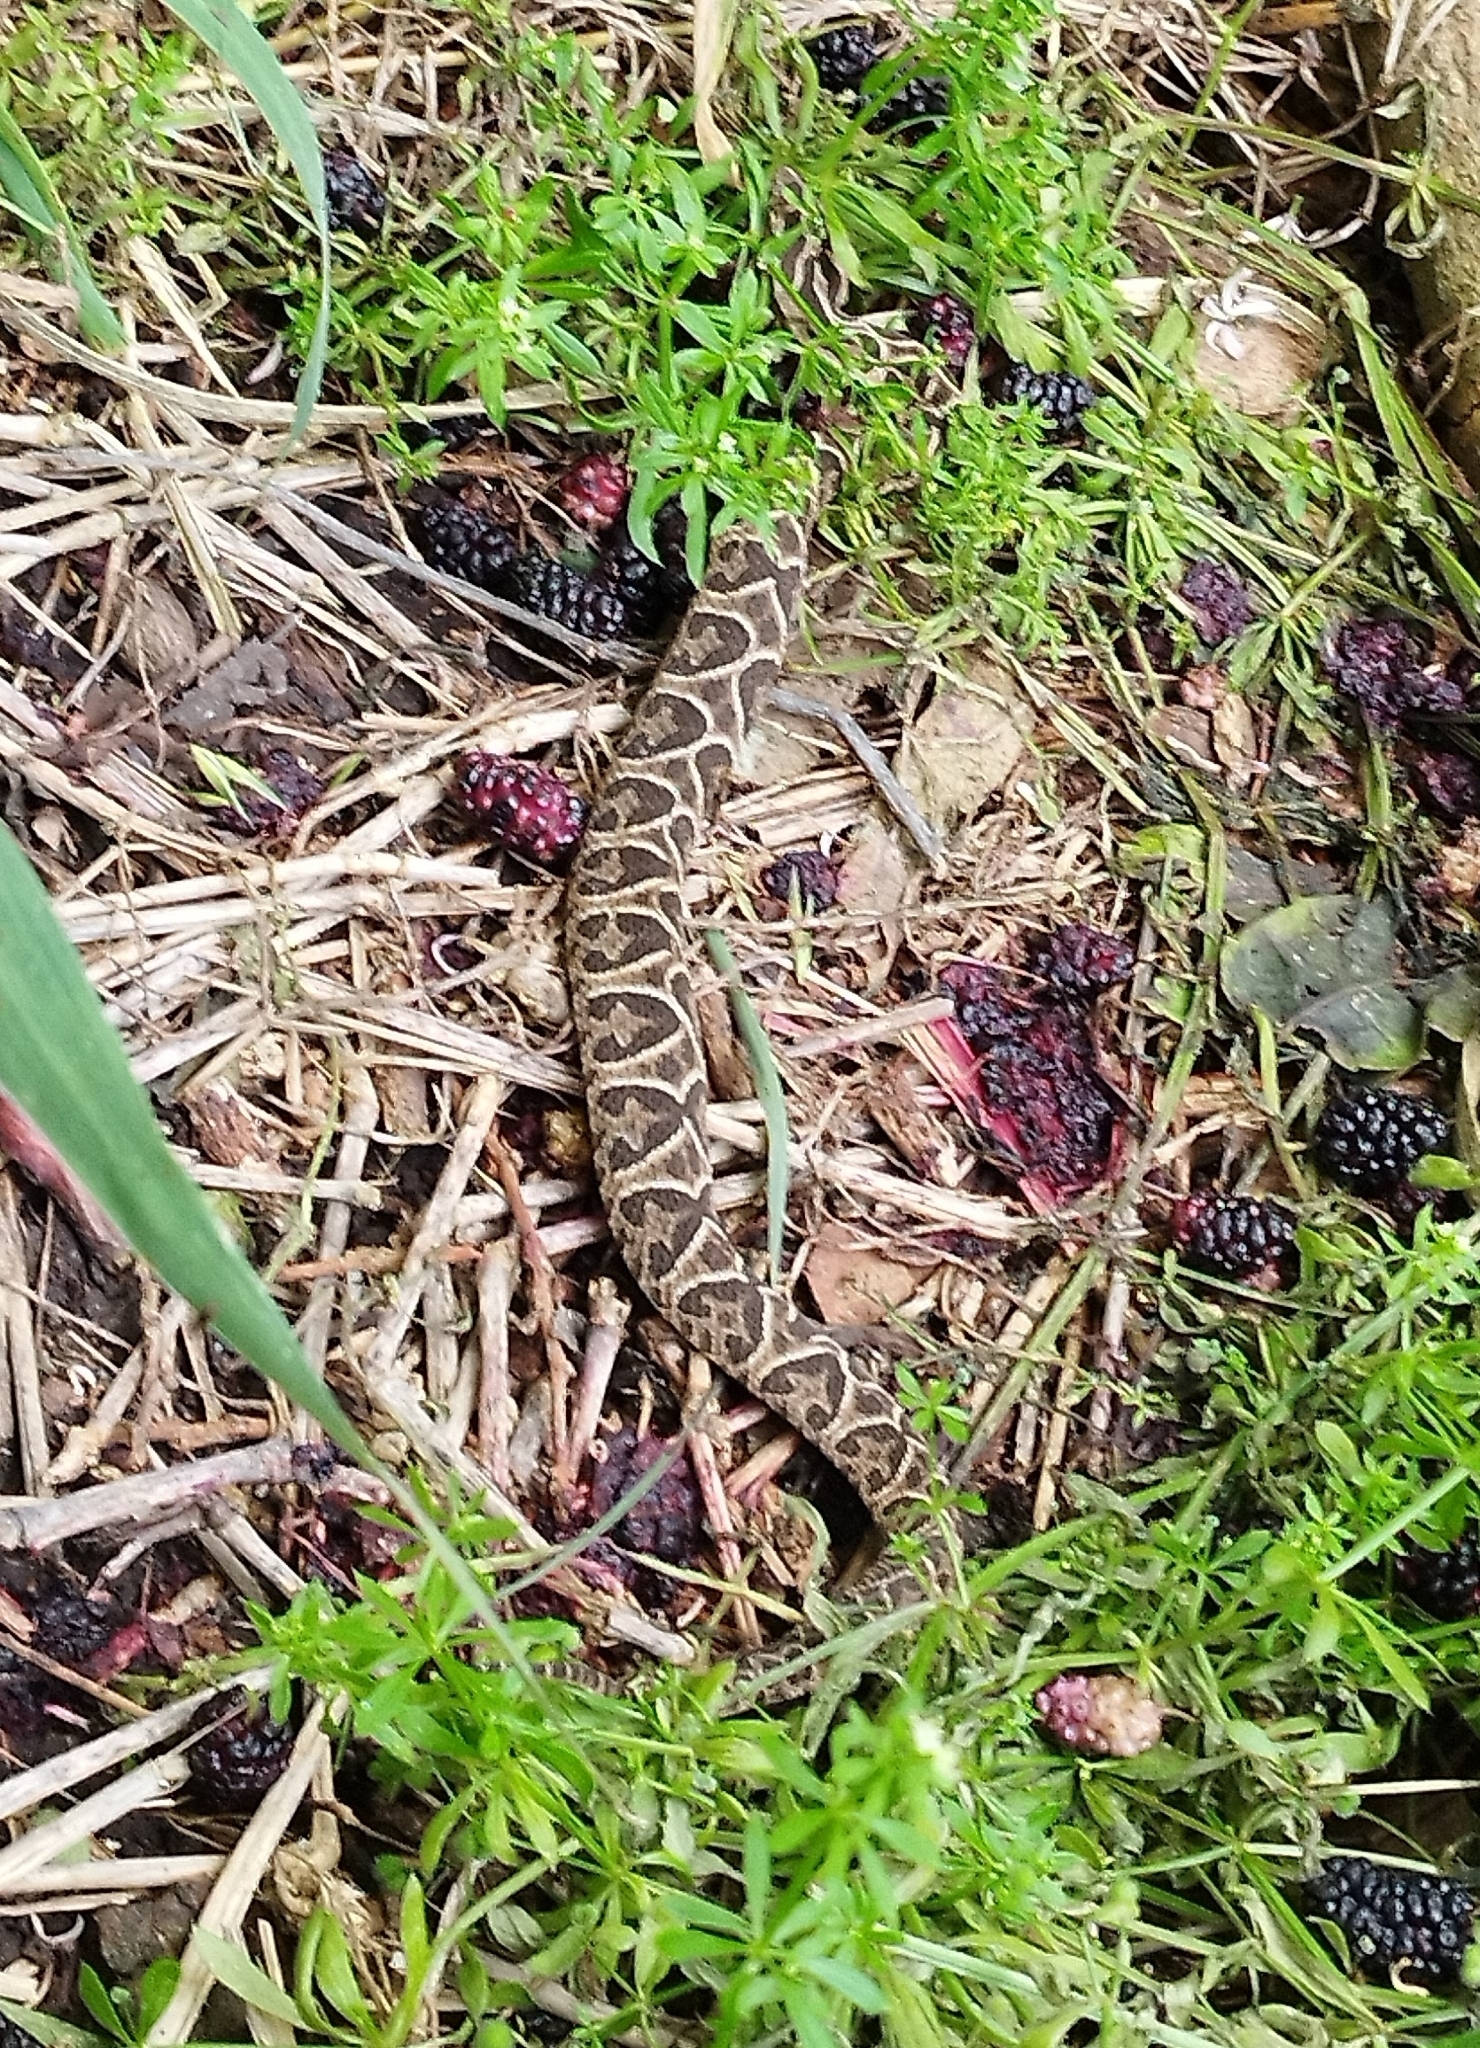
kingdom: Animalia
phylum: Chordata
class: Squamata
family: Viperidae
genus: Bothrops
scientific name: Bothrops alternatus
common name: Urutu
